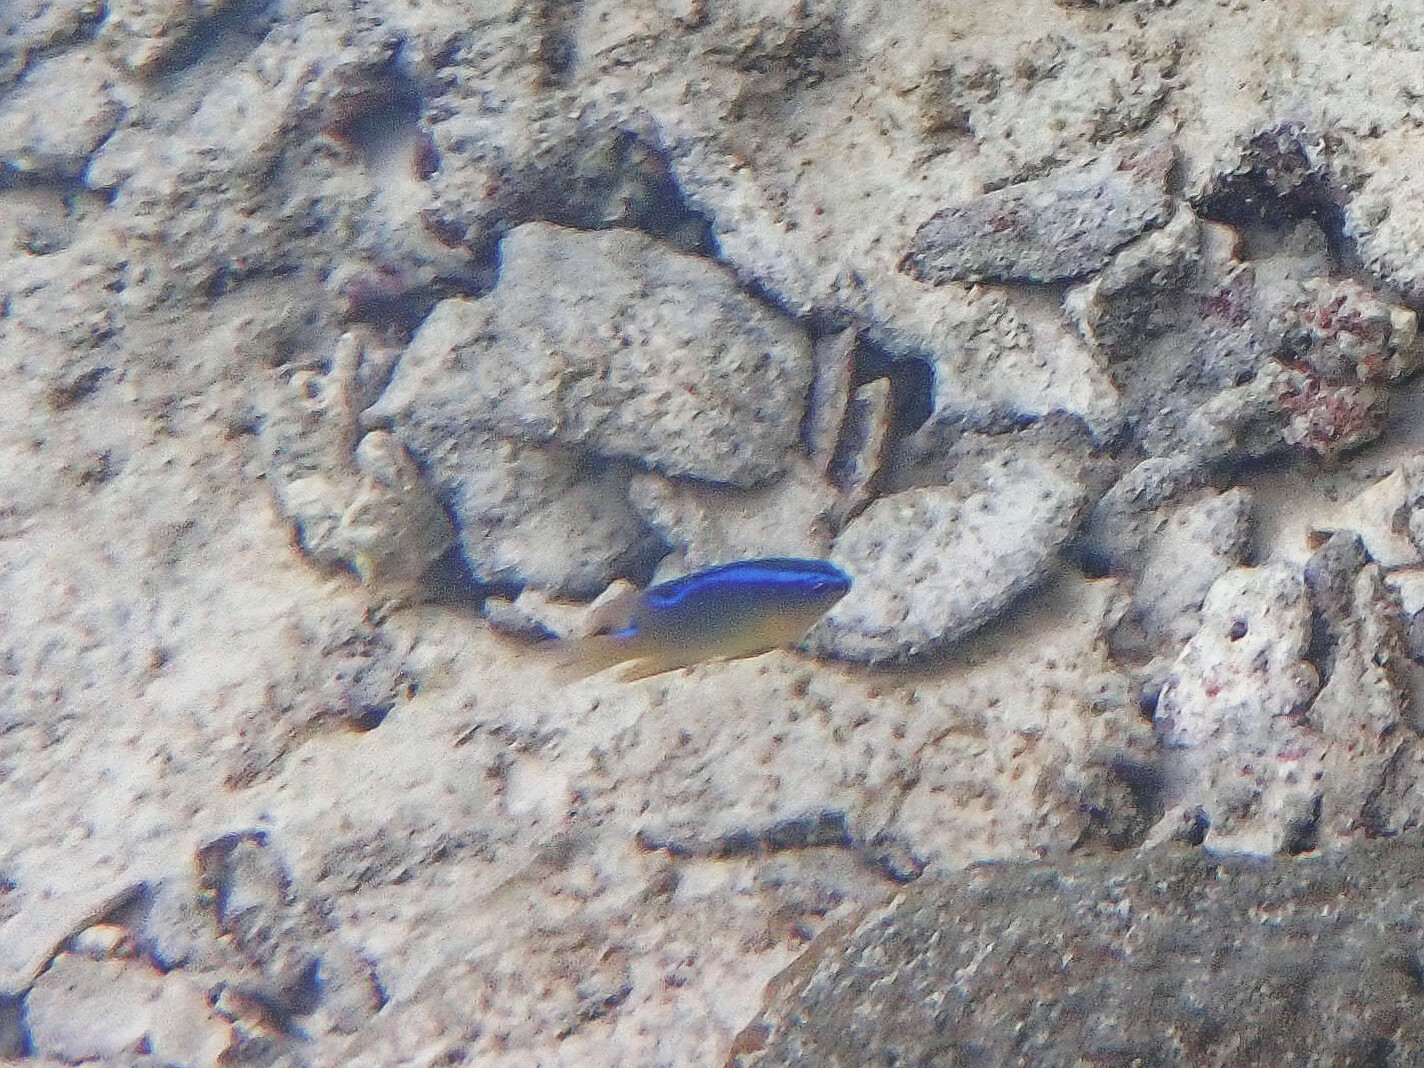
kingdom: Animalia
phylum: Chordata
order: Perciformes
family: Pomacentridae
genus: Chrysiptera
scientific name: Chrysiptera unimaculata
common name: Onespot demoiselle
